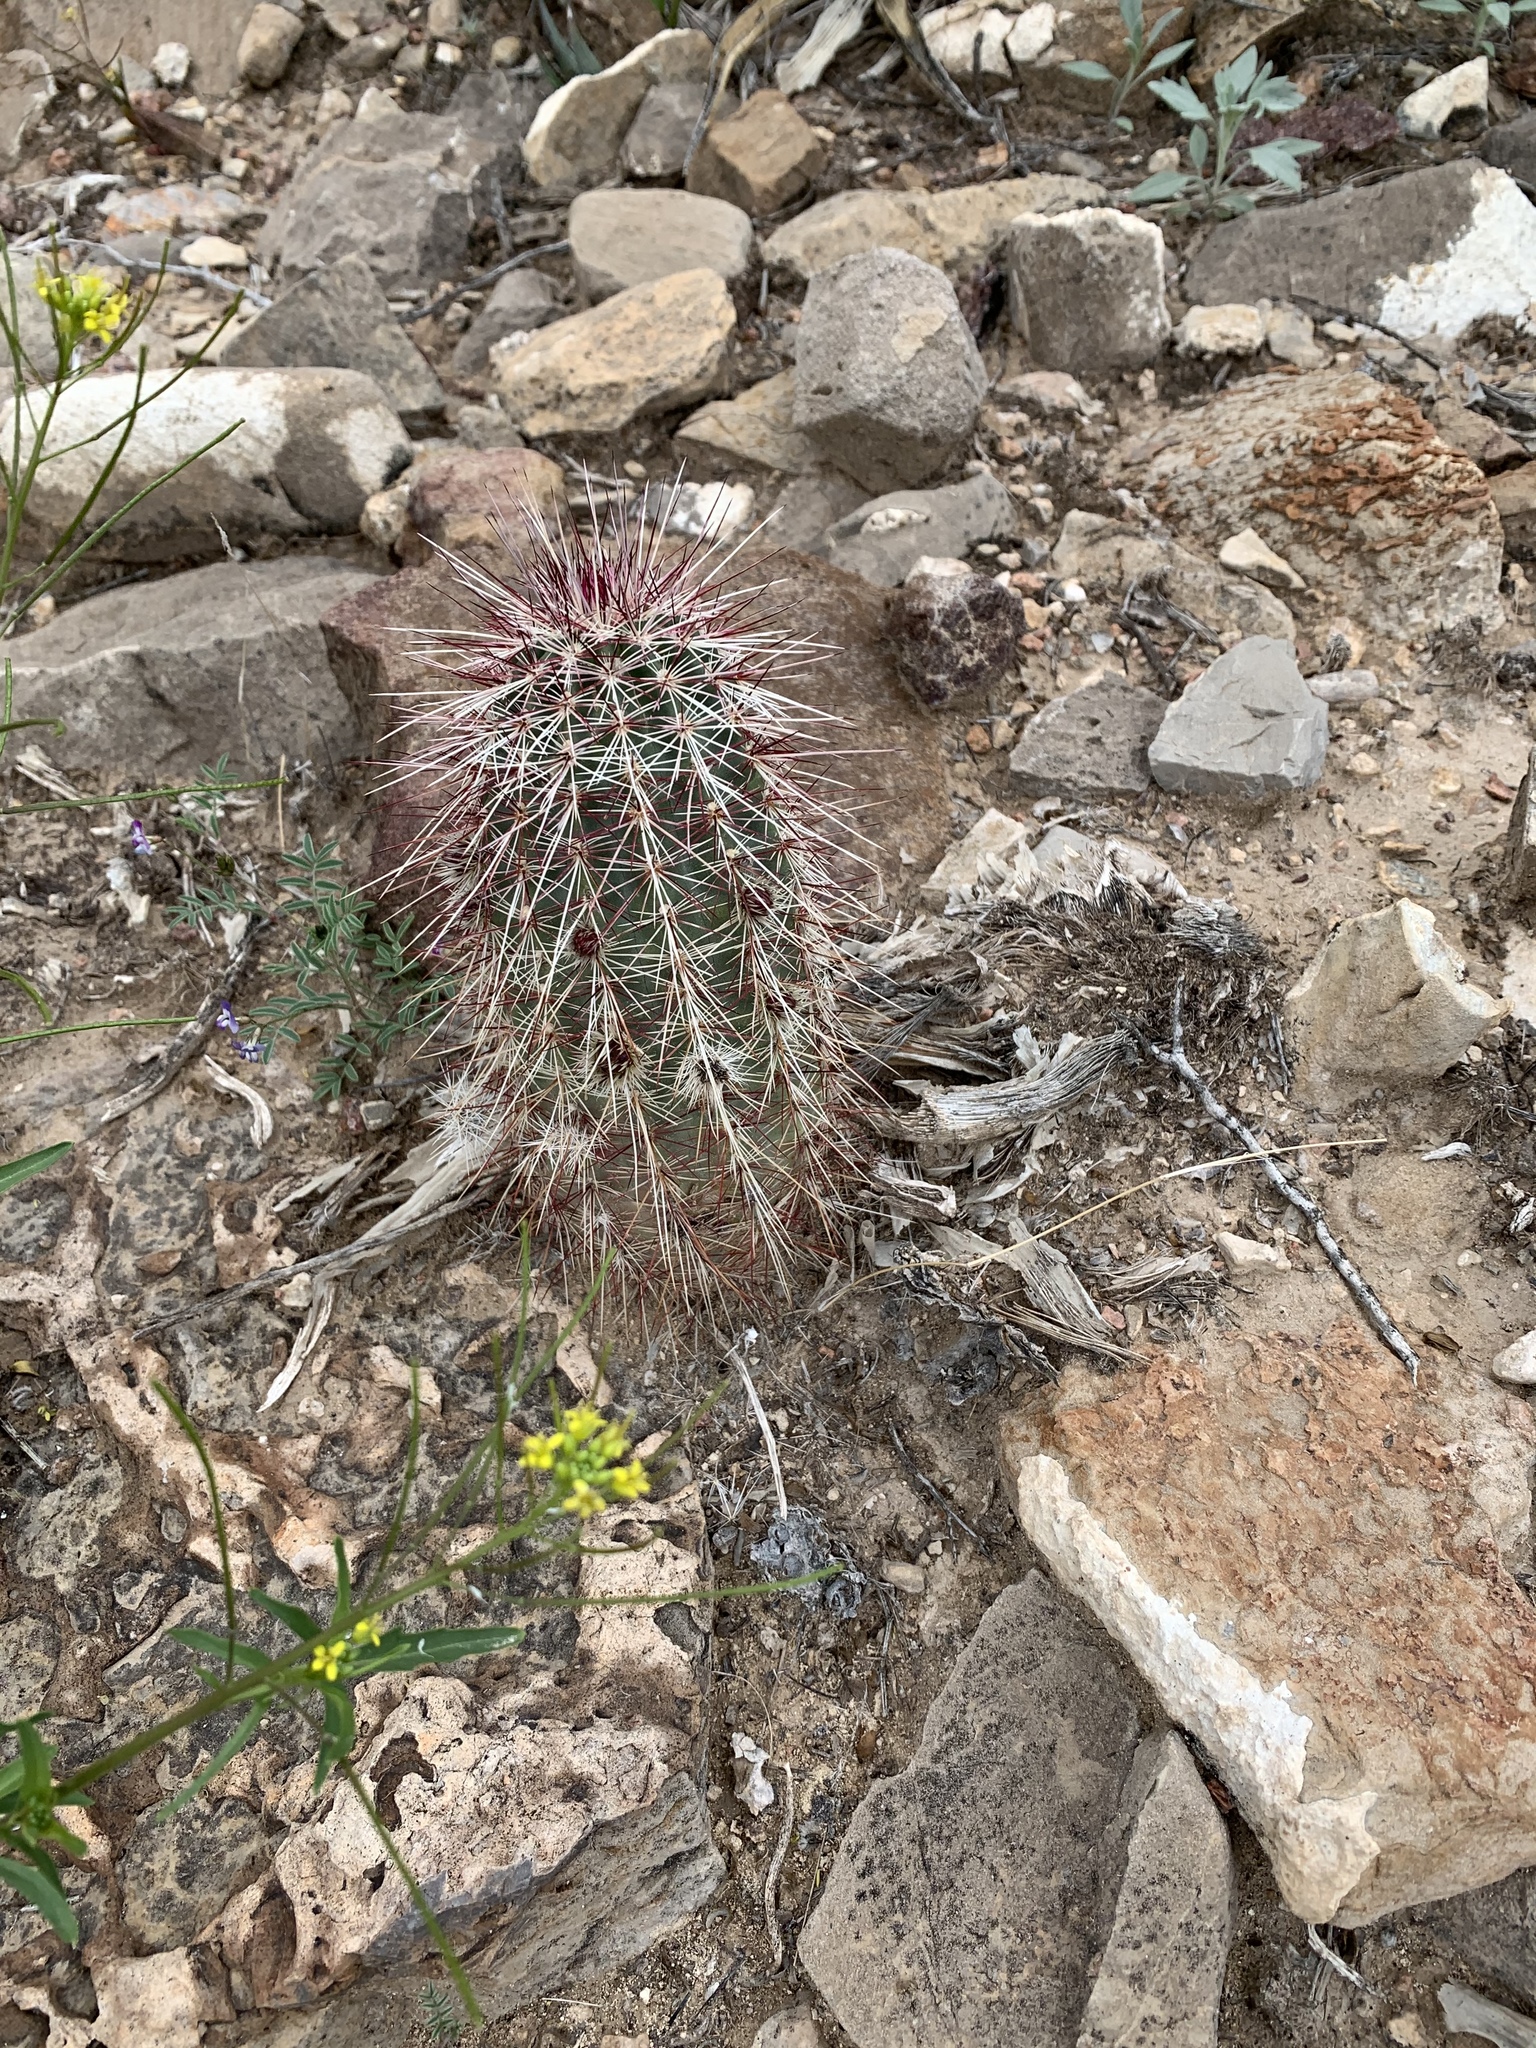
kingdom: Plantae
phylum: Tracheophyta
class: Magnoliopsida
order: Caryophyllales
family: Cactaceae
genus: Echinocereus
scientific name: Echinocereus viridiflorus
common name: Nylon hedgehog cactus
